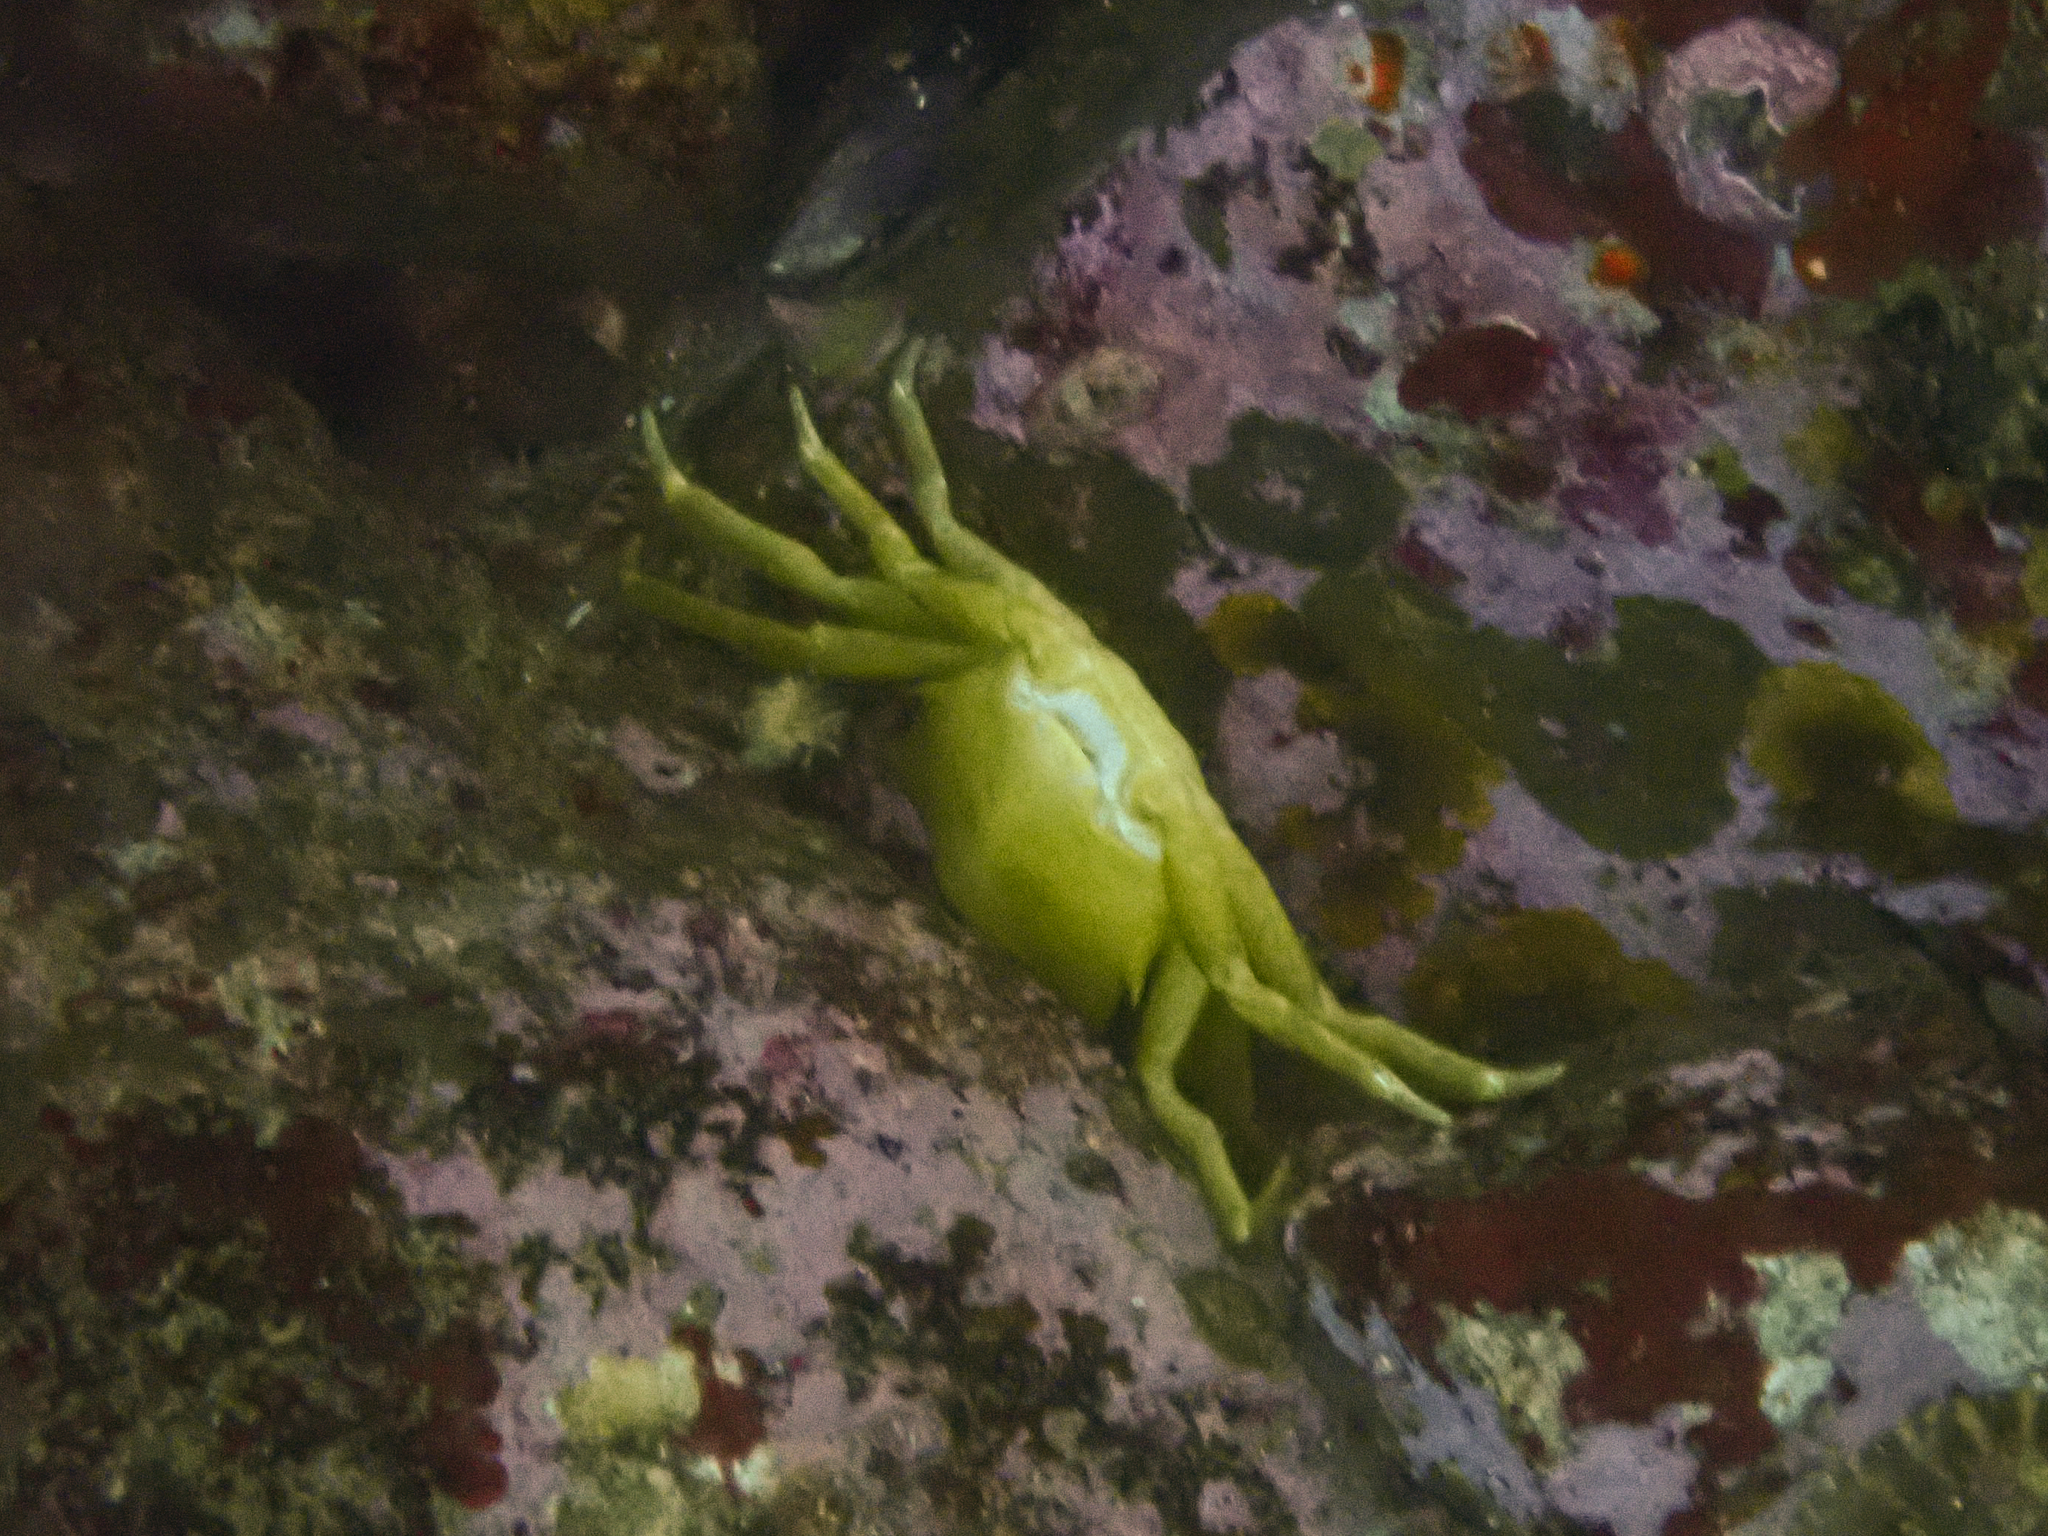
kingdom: Animalia
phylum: Arthropoda
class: Malacostraca
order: Decapoda
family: Epialtidae
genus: Pugettia
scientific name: Pugettia producta
